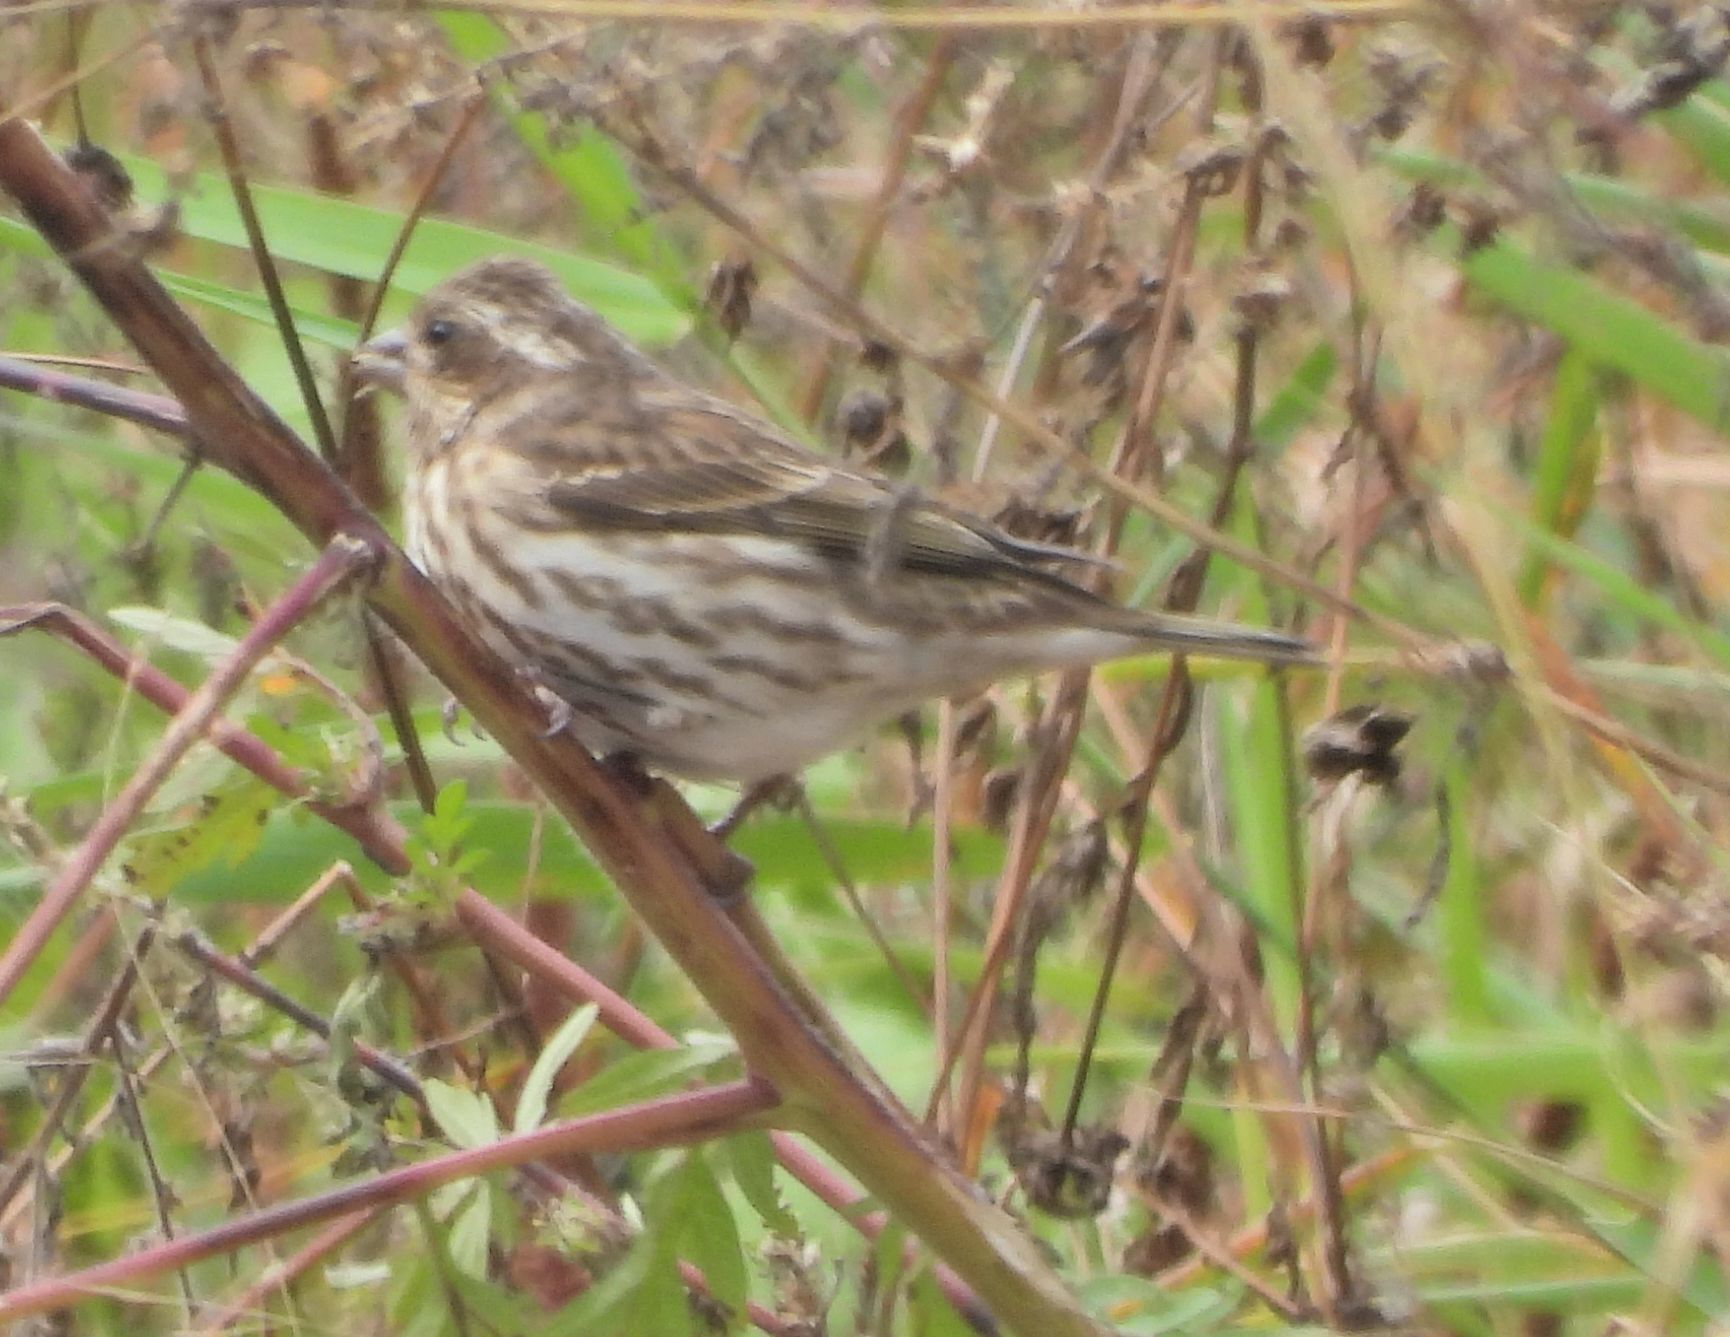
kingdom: Animalia
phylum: Chordata
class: Aves
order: Passeriformes
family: Fringillidae
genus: Haemorhous
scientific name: Haemorhous purpureus
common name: Purple finch
